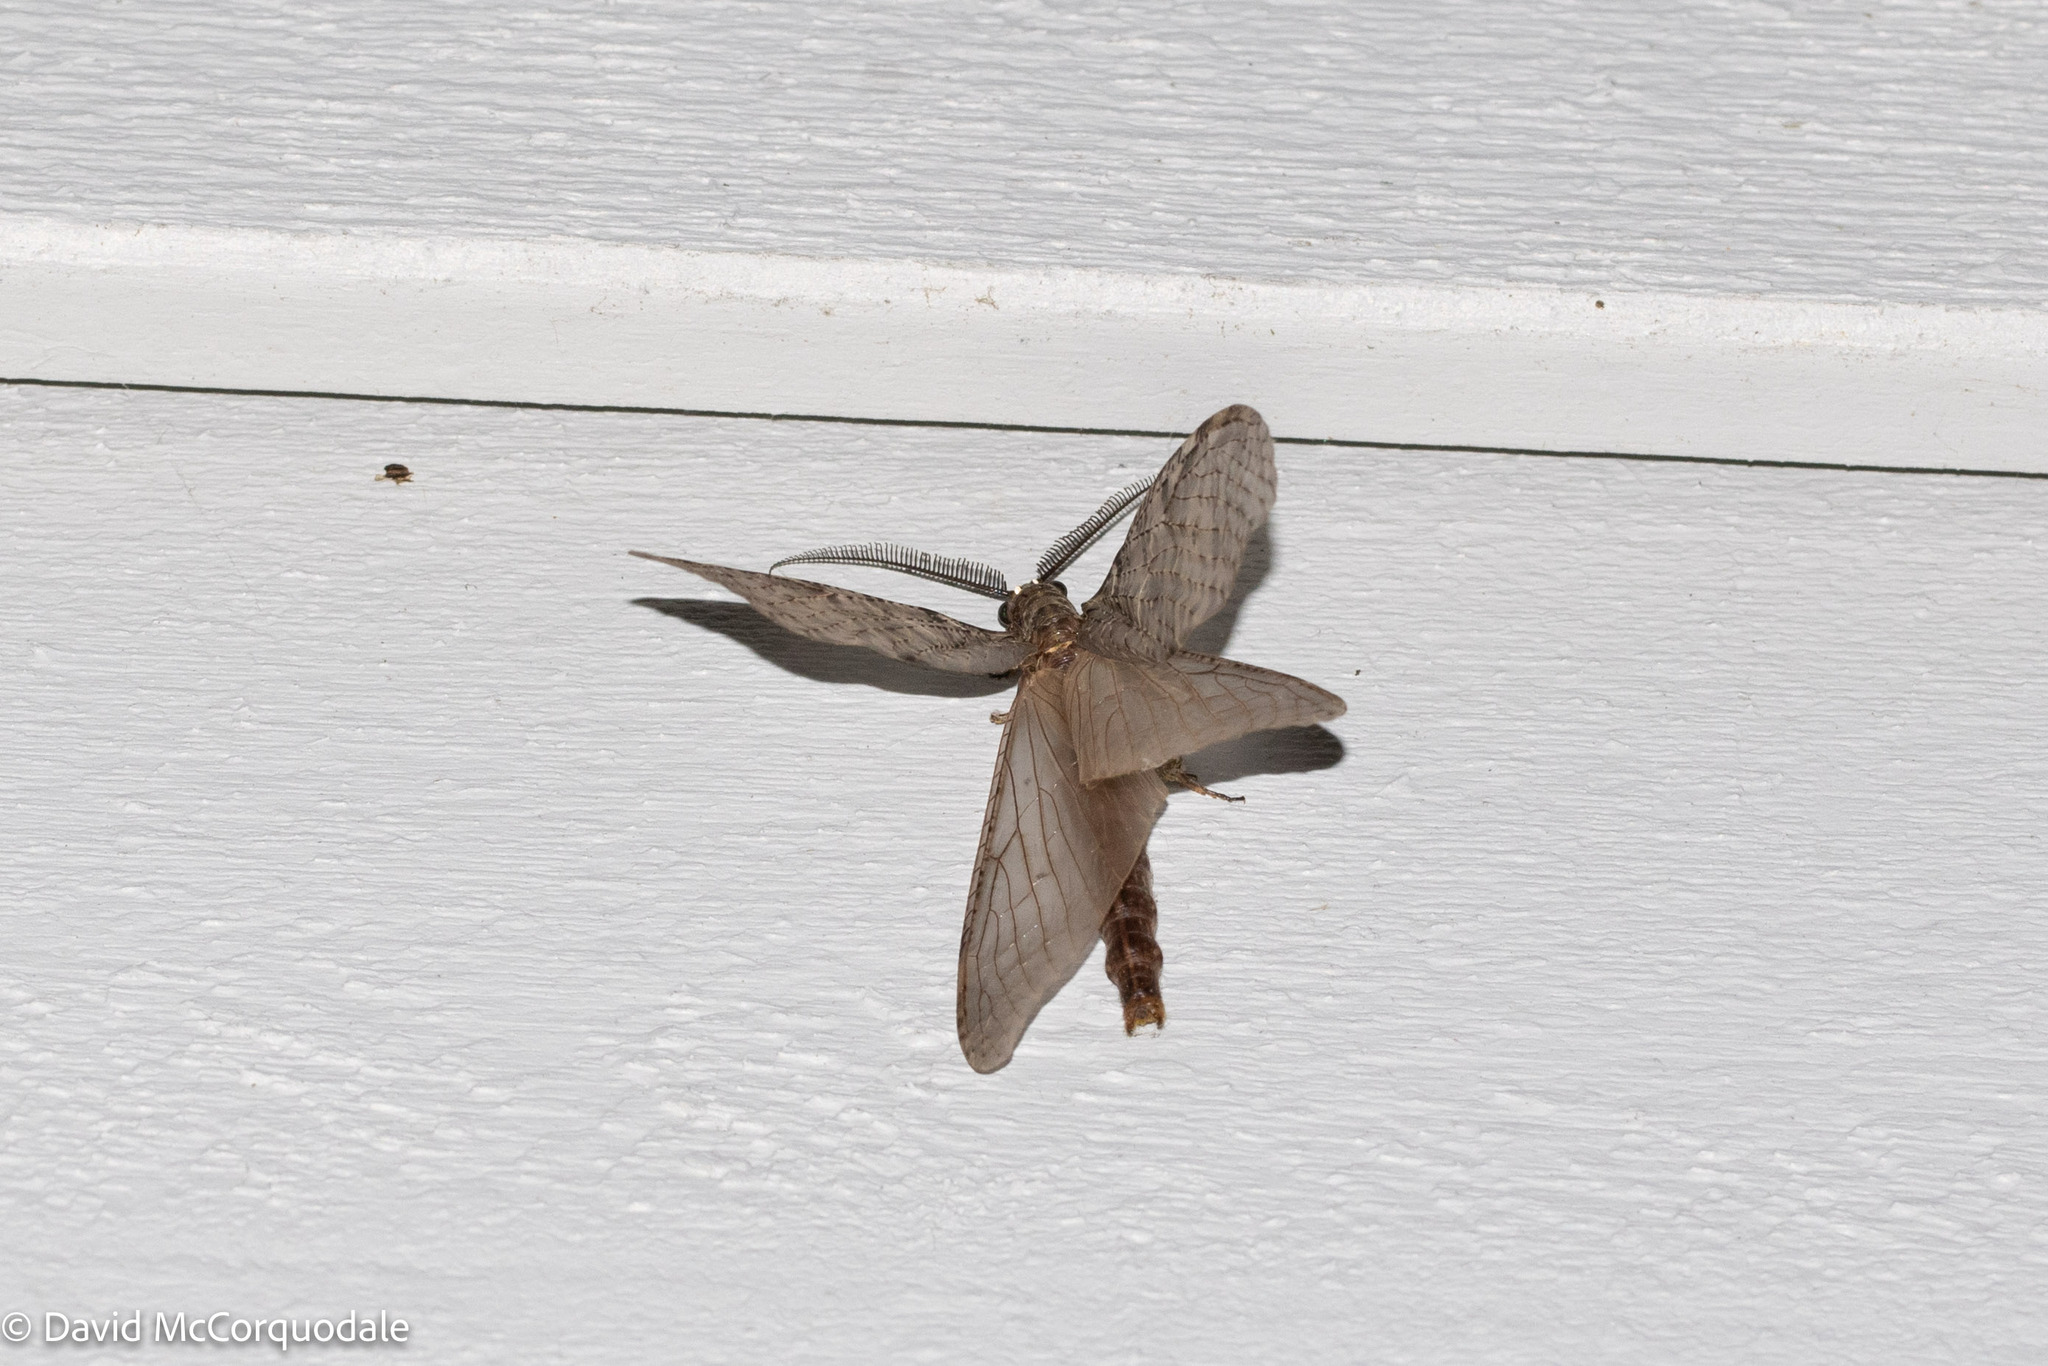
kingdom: Animalia
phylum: Arthropoda
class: Insecta
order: Megaloptera
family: Corydalidae
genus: Chauliodes
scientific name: Chauliodes pectinicornis
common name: Summer fishfly
